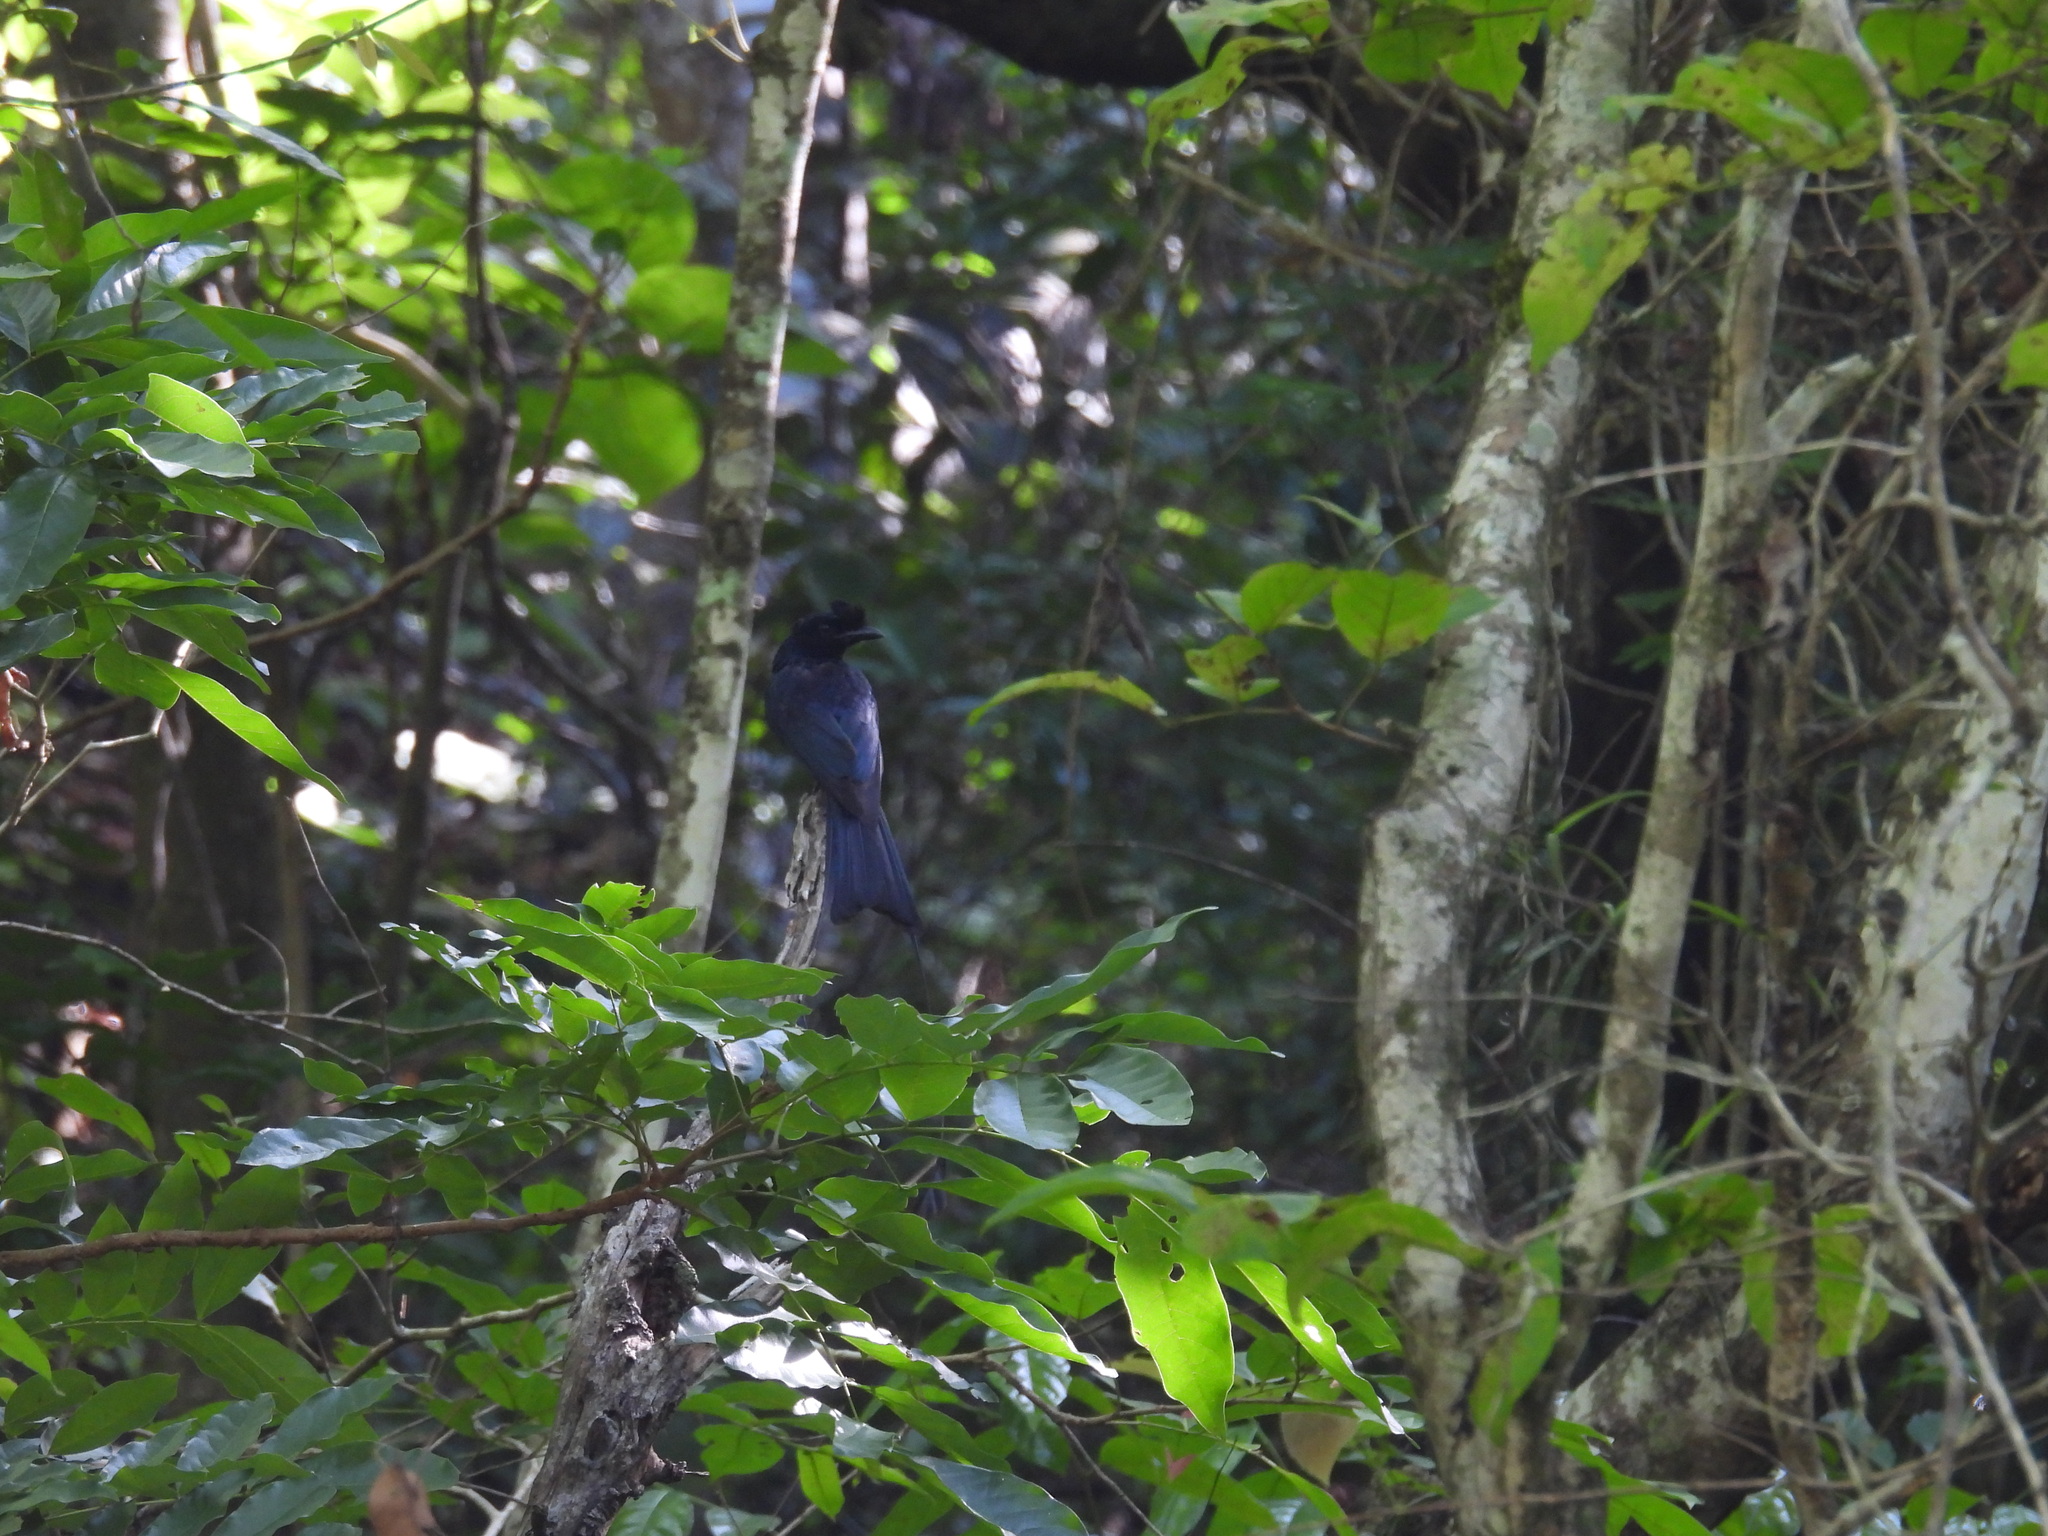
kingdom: Animalia
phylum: Chordata
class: Aves
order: Passeriformes
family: Dicruridae
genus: Dicrurus
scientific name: Dicrurus paradiseus
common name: Greater racket-tailed drongo
